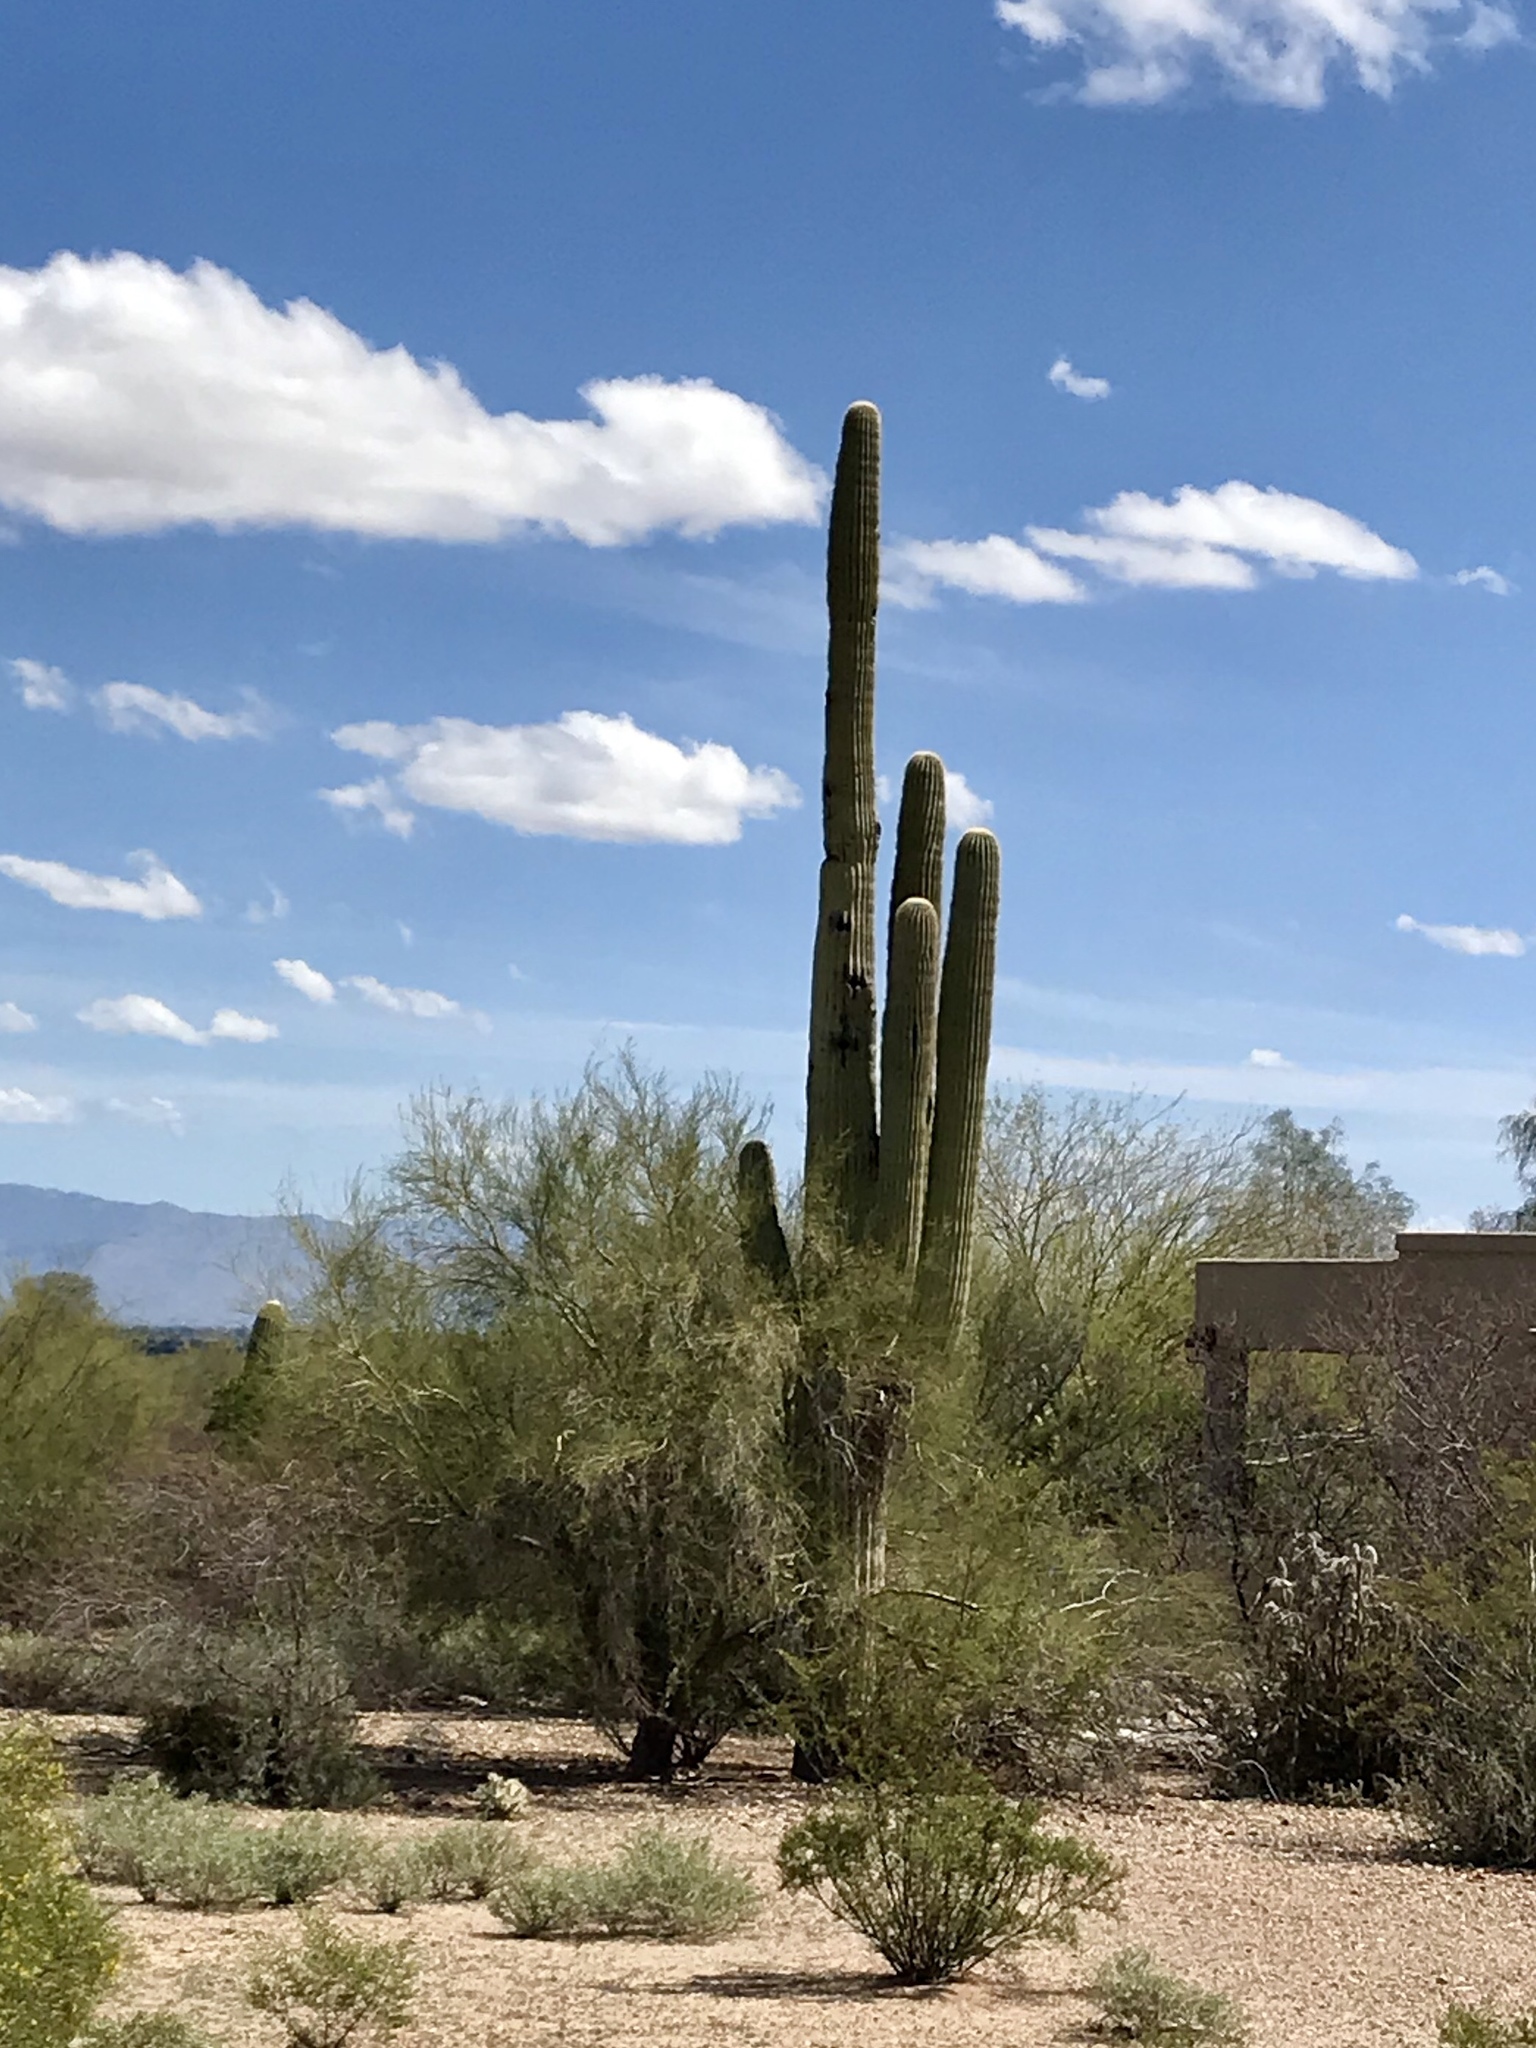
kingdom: Plantae
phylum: Tracheophyta
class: Magnoliopsida
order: Caryophyllales
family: Cactaceae
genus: Carnegiea
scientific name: Carnegiea gigantea
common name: Saguaro
